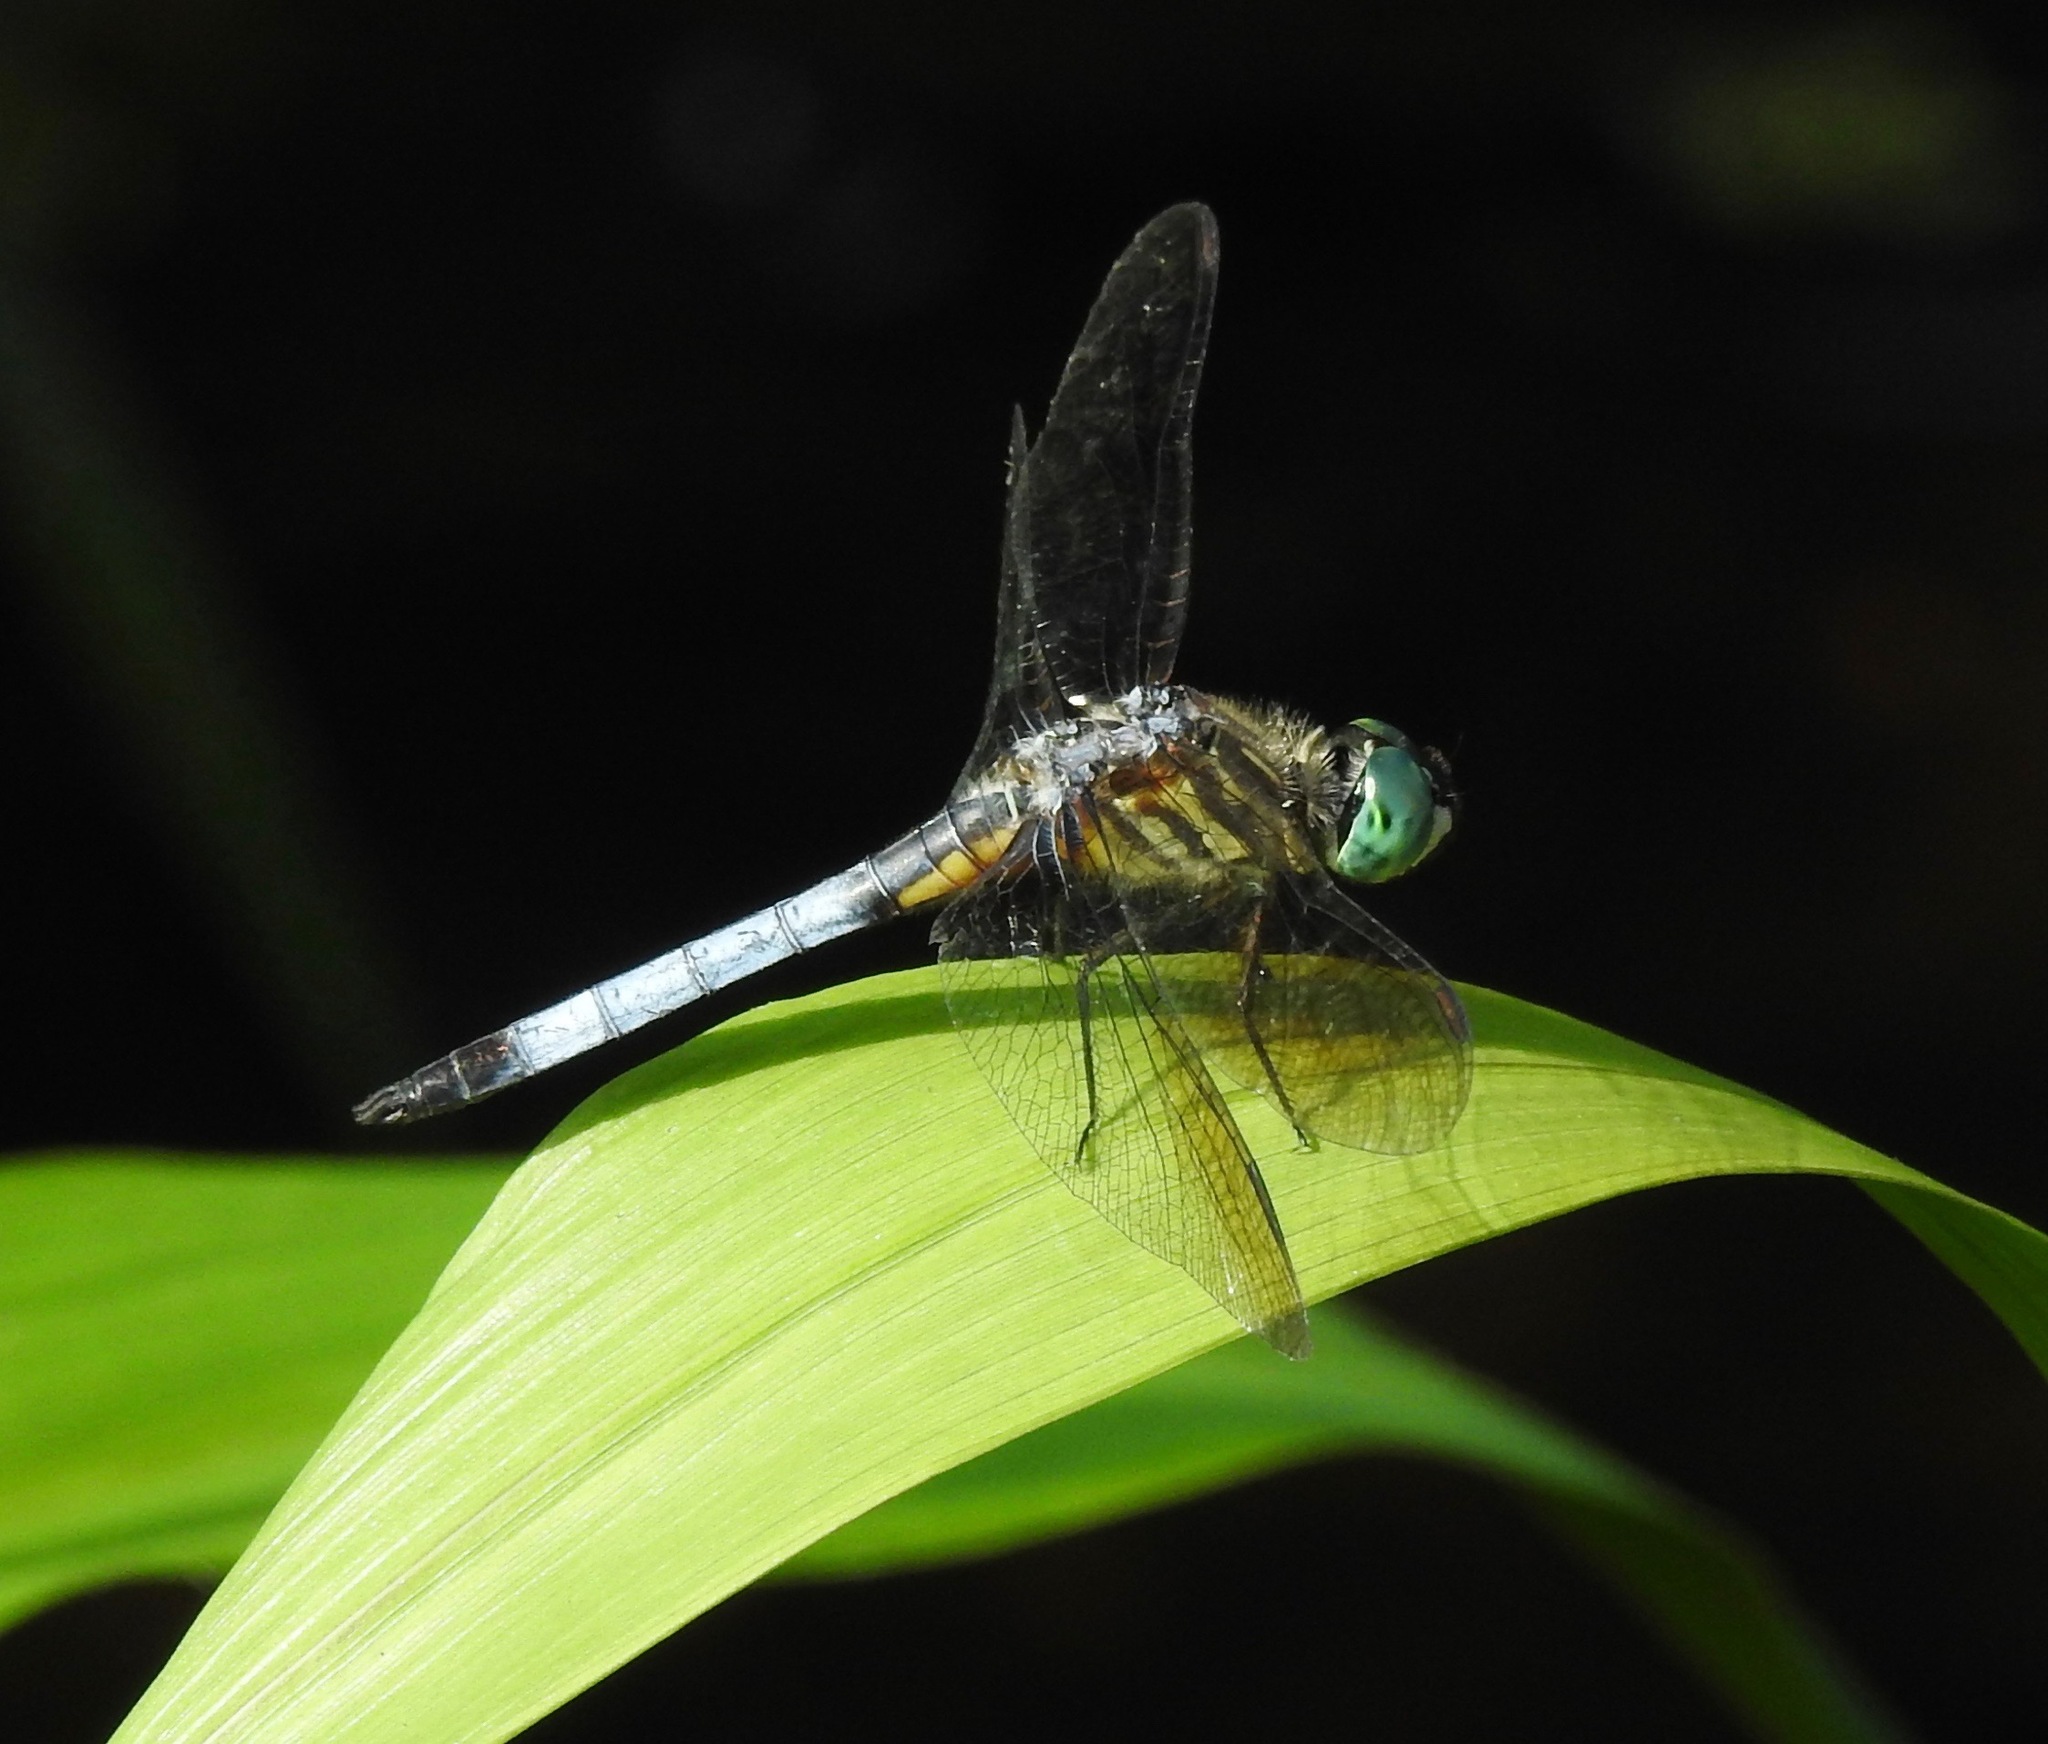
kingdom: Animalia
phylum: Arthropoda
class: Insecta
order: Odonata
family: Libellulidae
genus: Pachydiplax
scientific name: Pachydiplax longipennis
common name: Blue dasher
